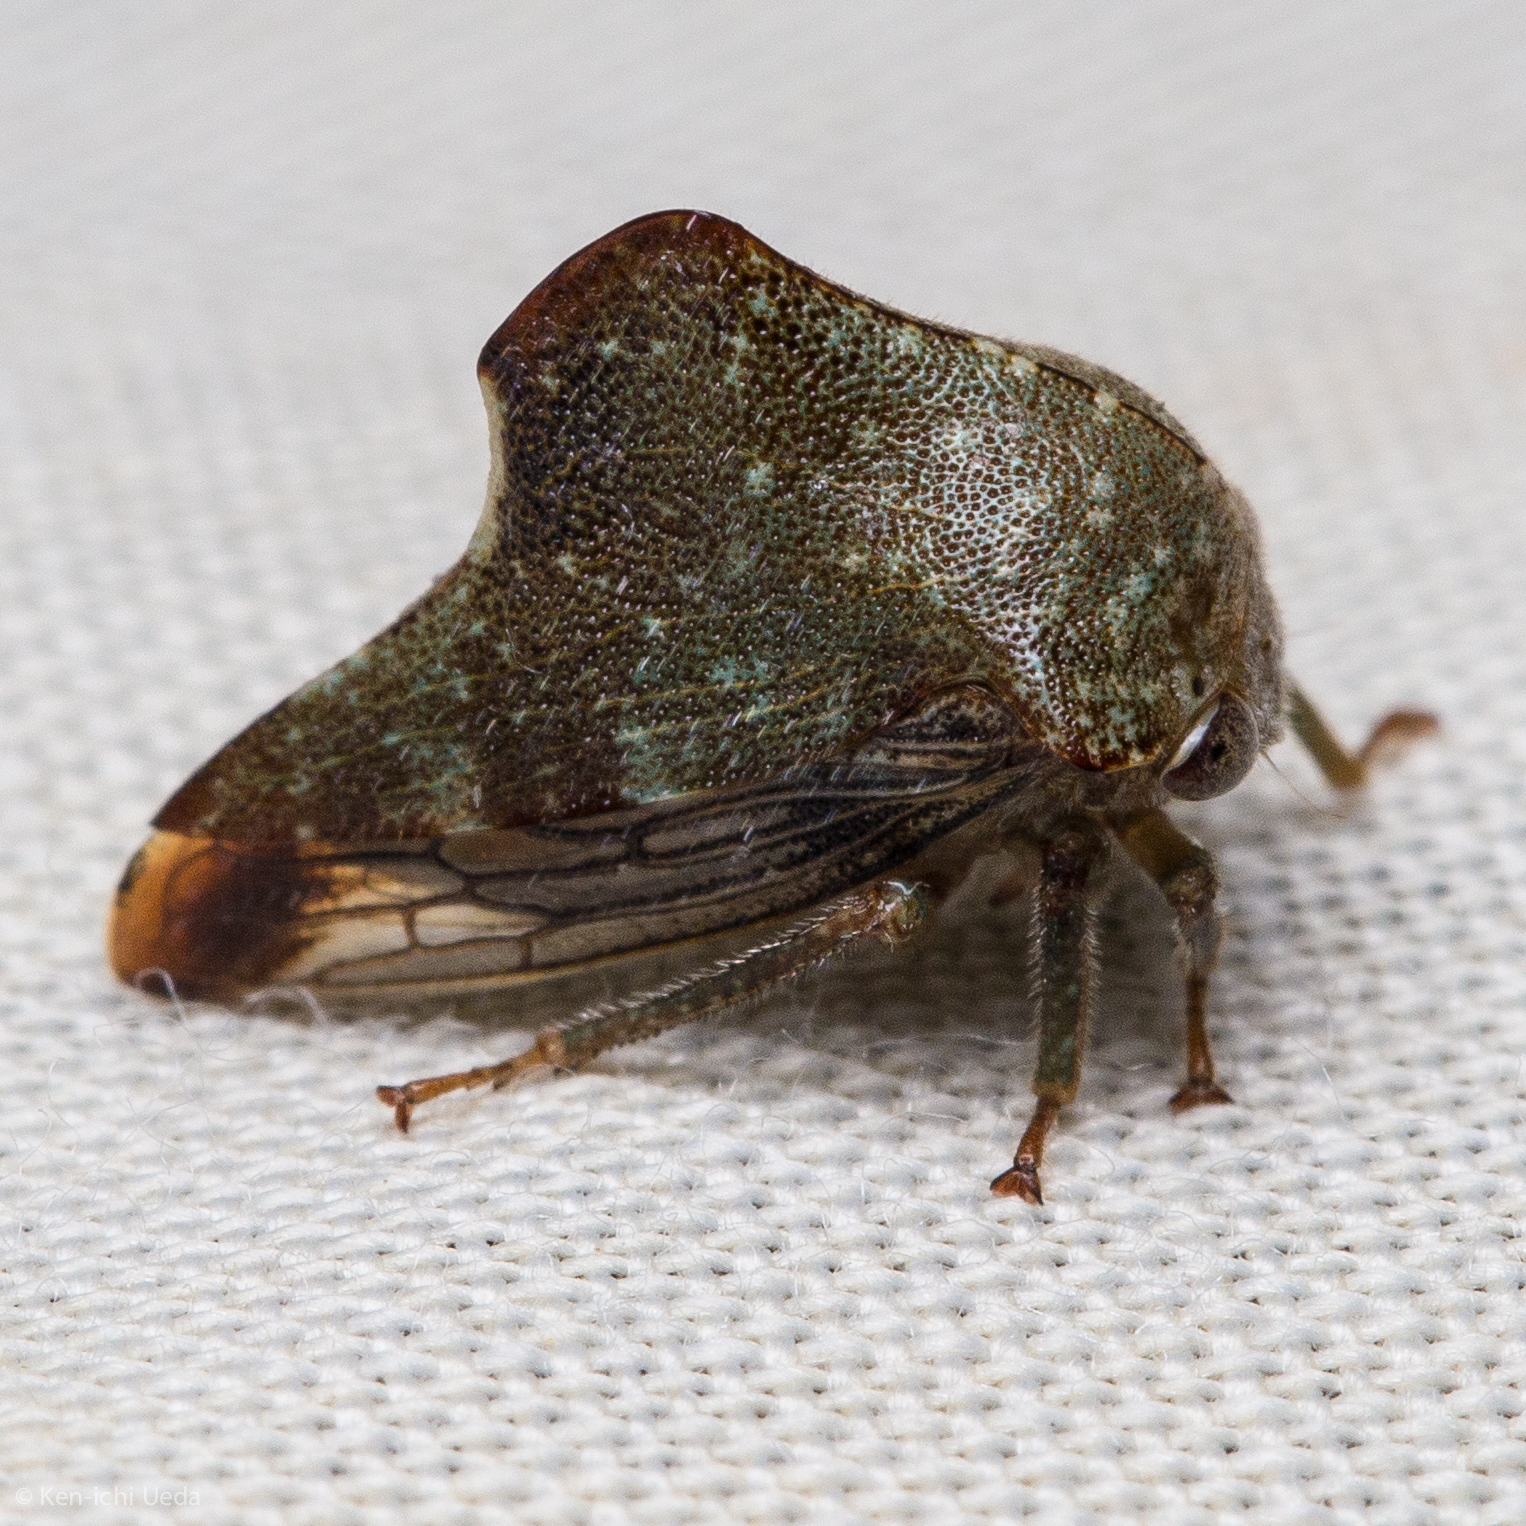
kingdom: Animalia
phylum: Arthropoda
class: Insecta
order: Hemiptera
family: Membracidae
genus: Telamona
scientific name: Telamona monticola
